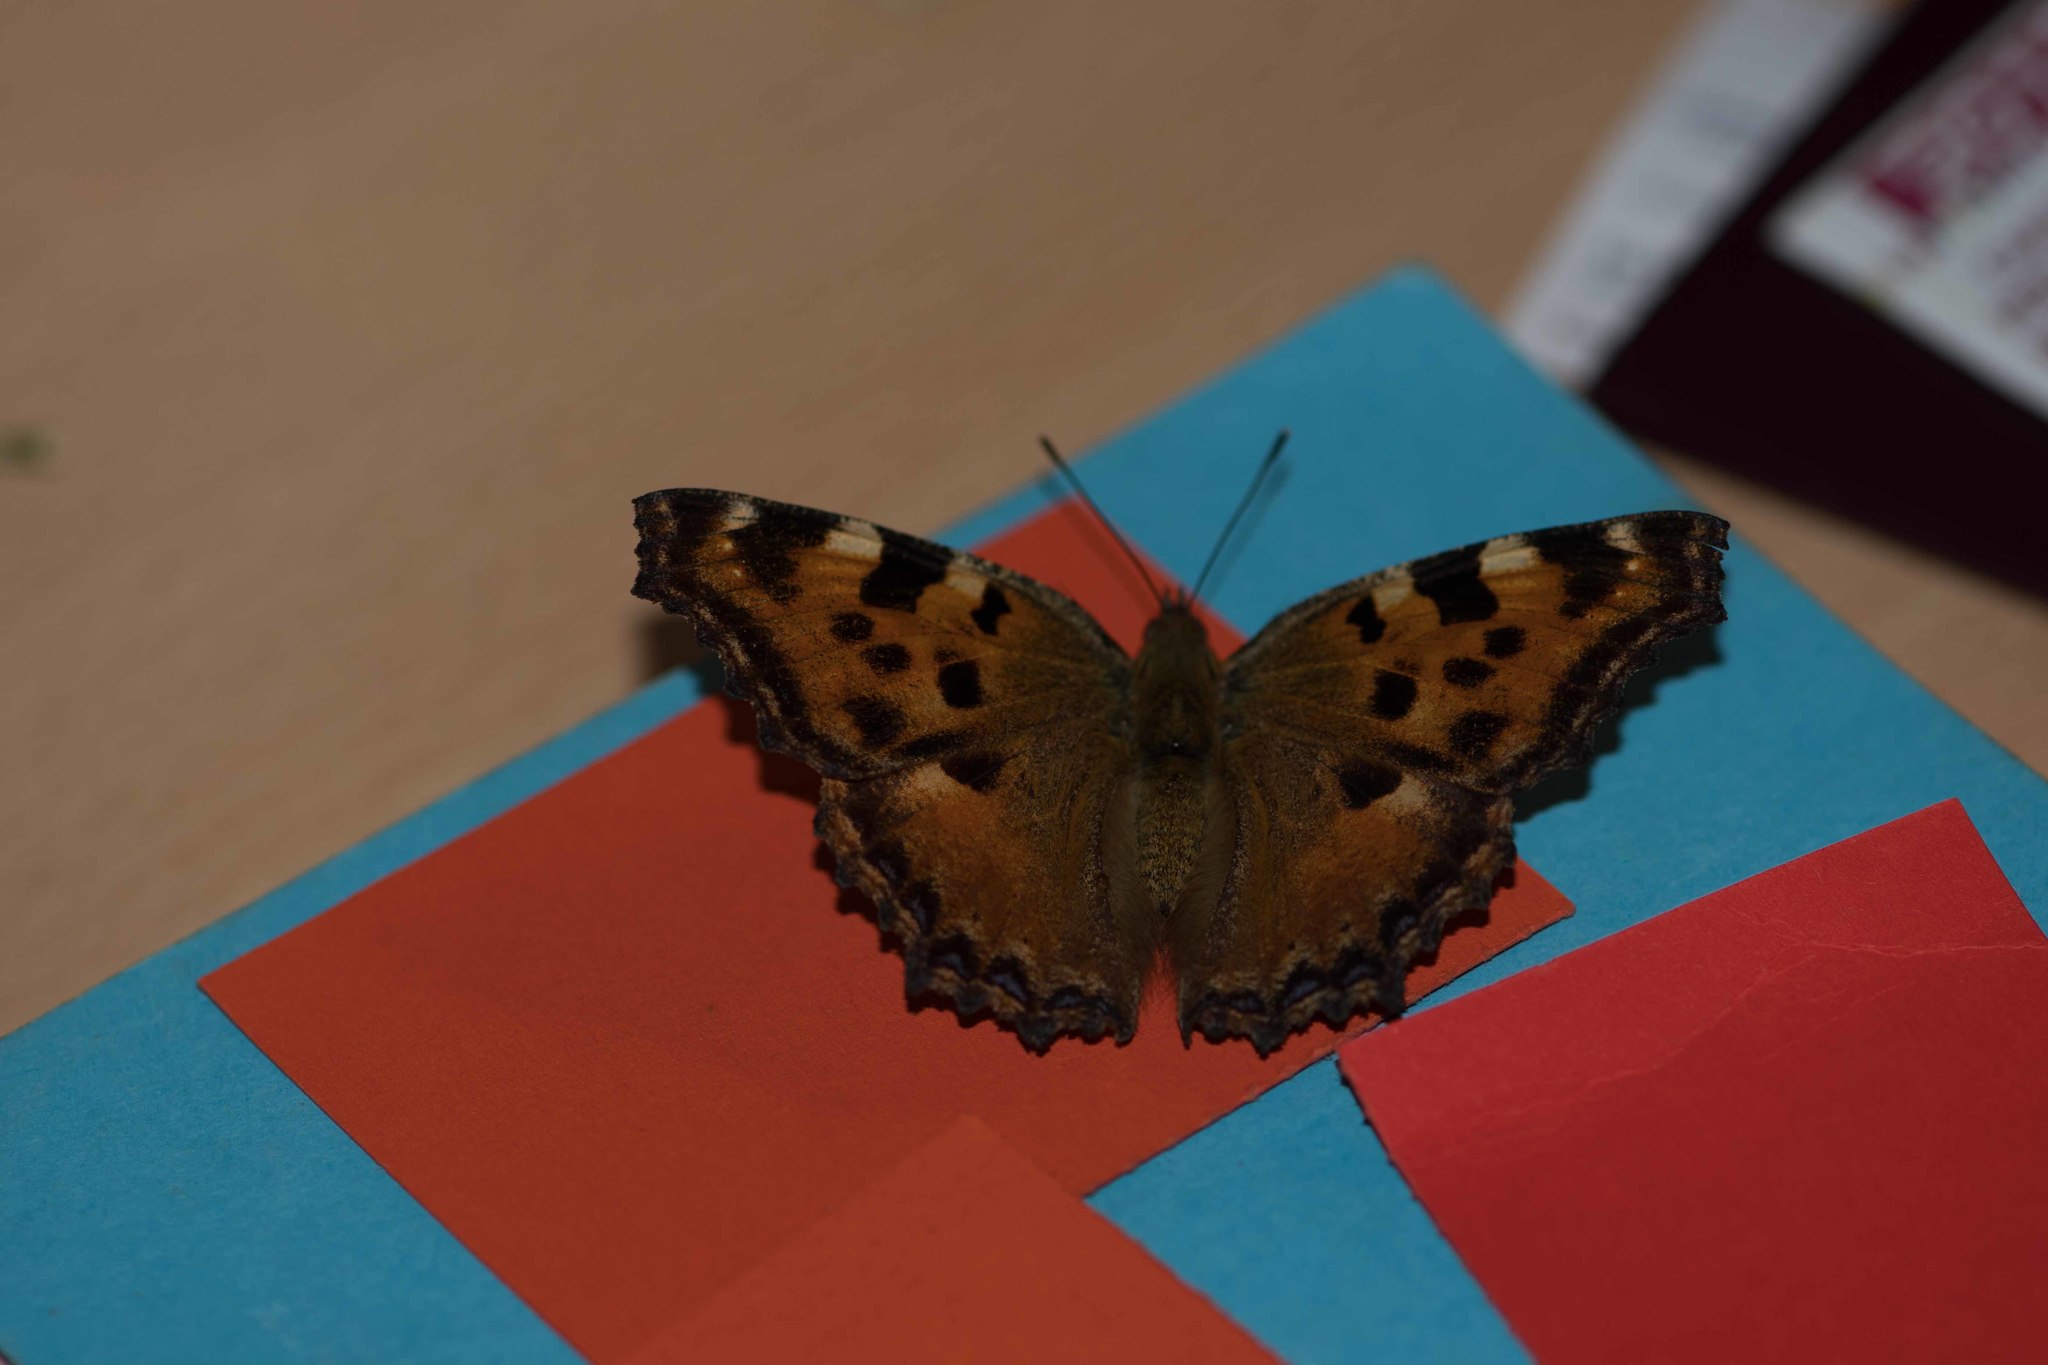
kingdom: Animalia
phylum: Arthropoda
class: Insecta
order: Lepidoptera
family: Nymphalidae
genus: Nymphalis
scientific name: Nymphalis polychloros
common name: Large tortoiseshell
